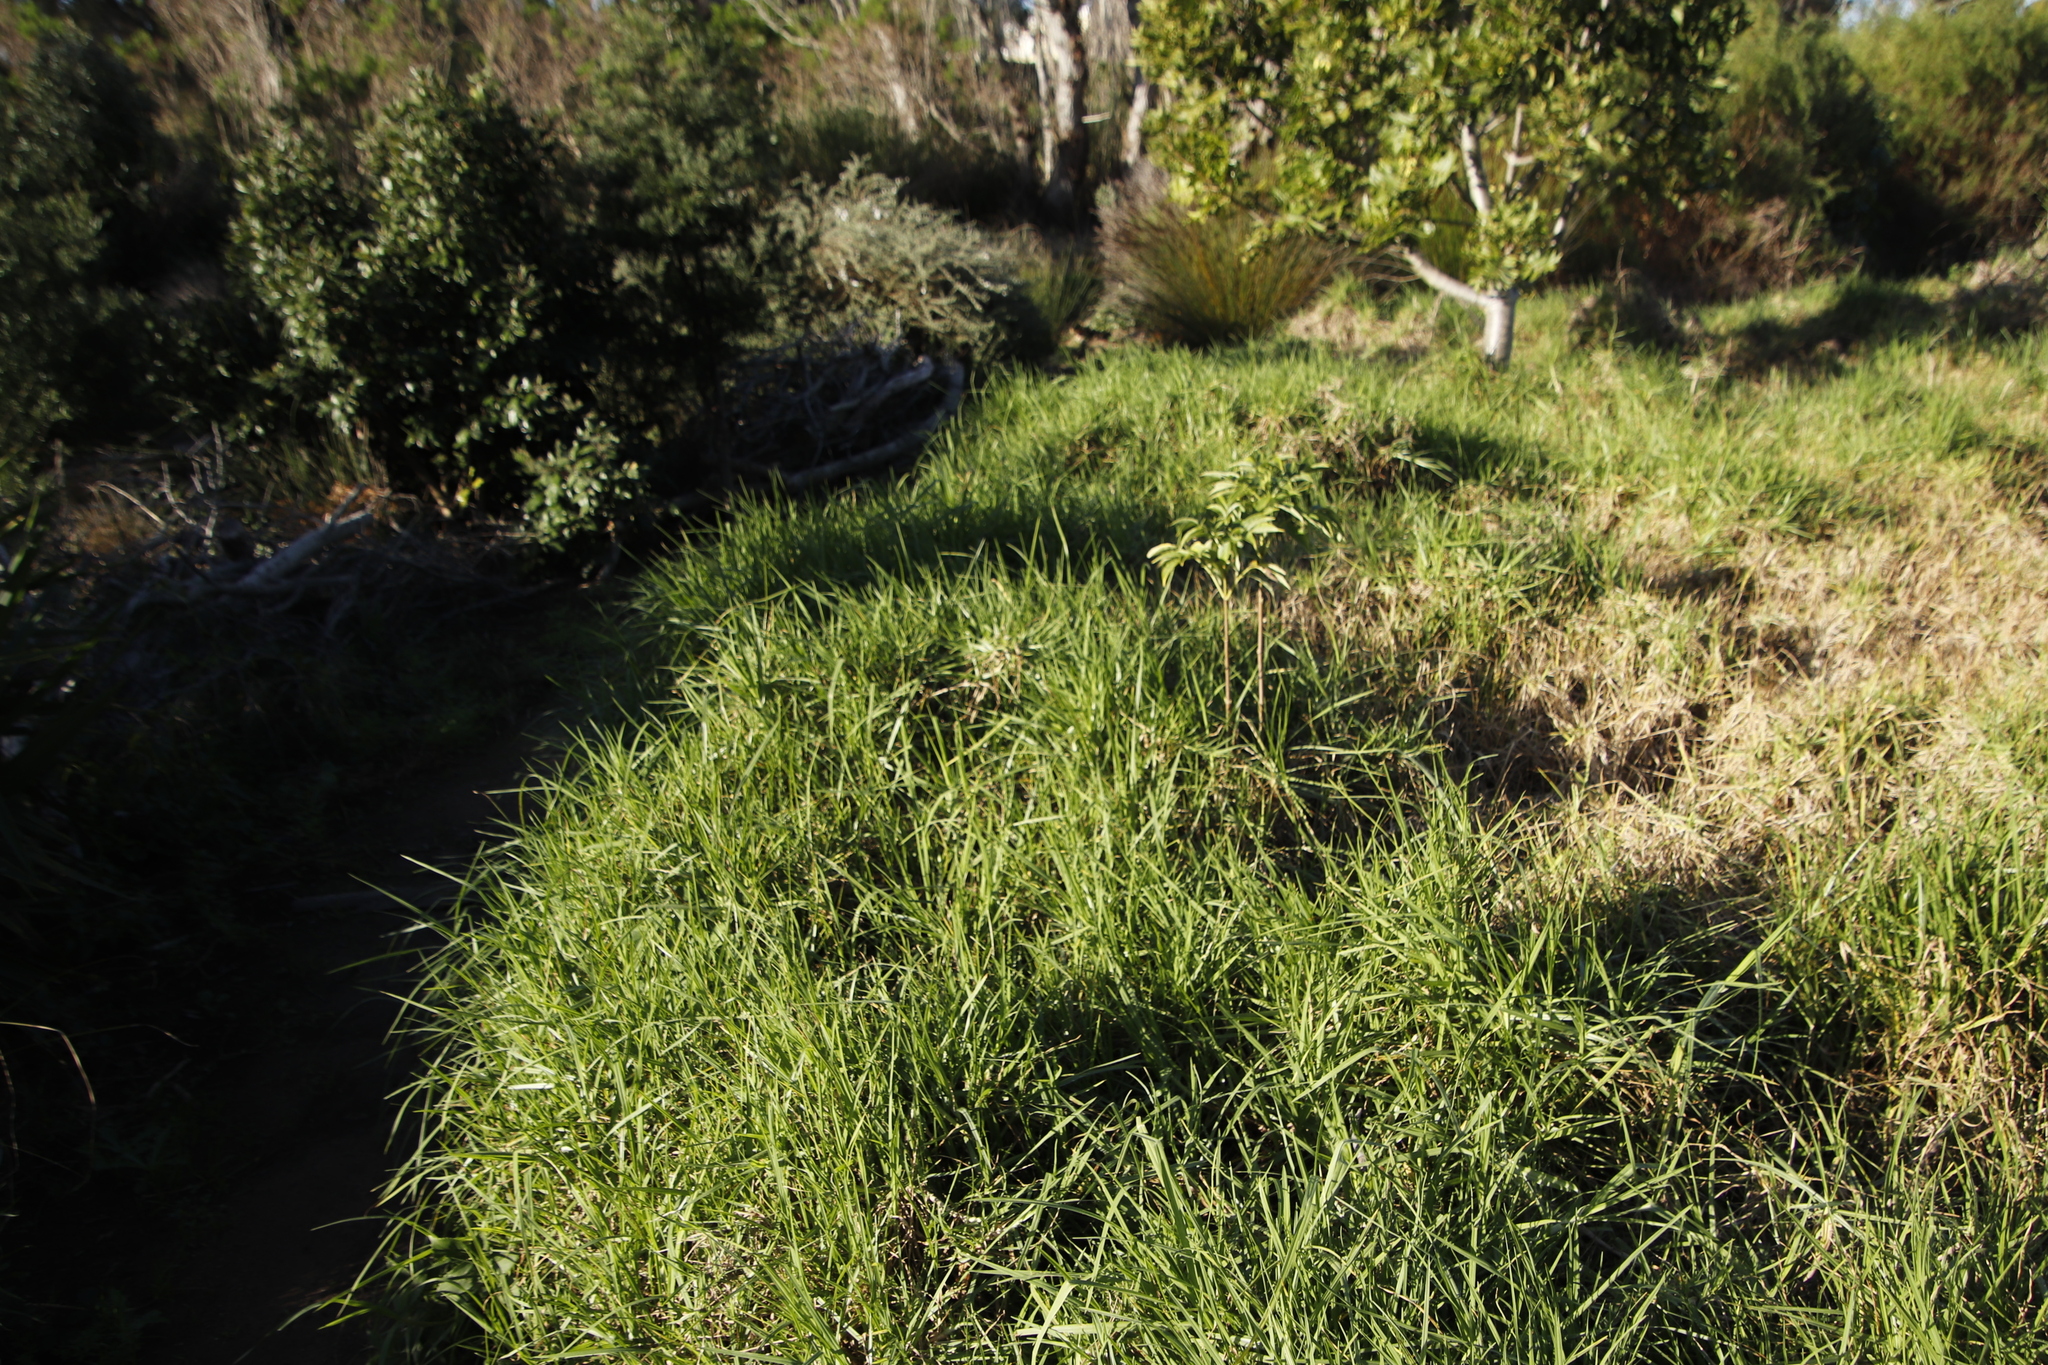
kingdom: Plantae
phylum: Tracheophyta
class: Liliopsida
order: Poales
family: Poaceae
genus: Cenchrus
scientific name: Cenchrus clandestinus
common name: Kikuyugrass
